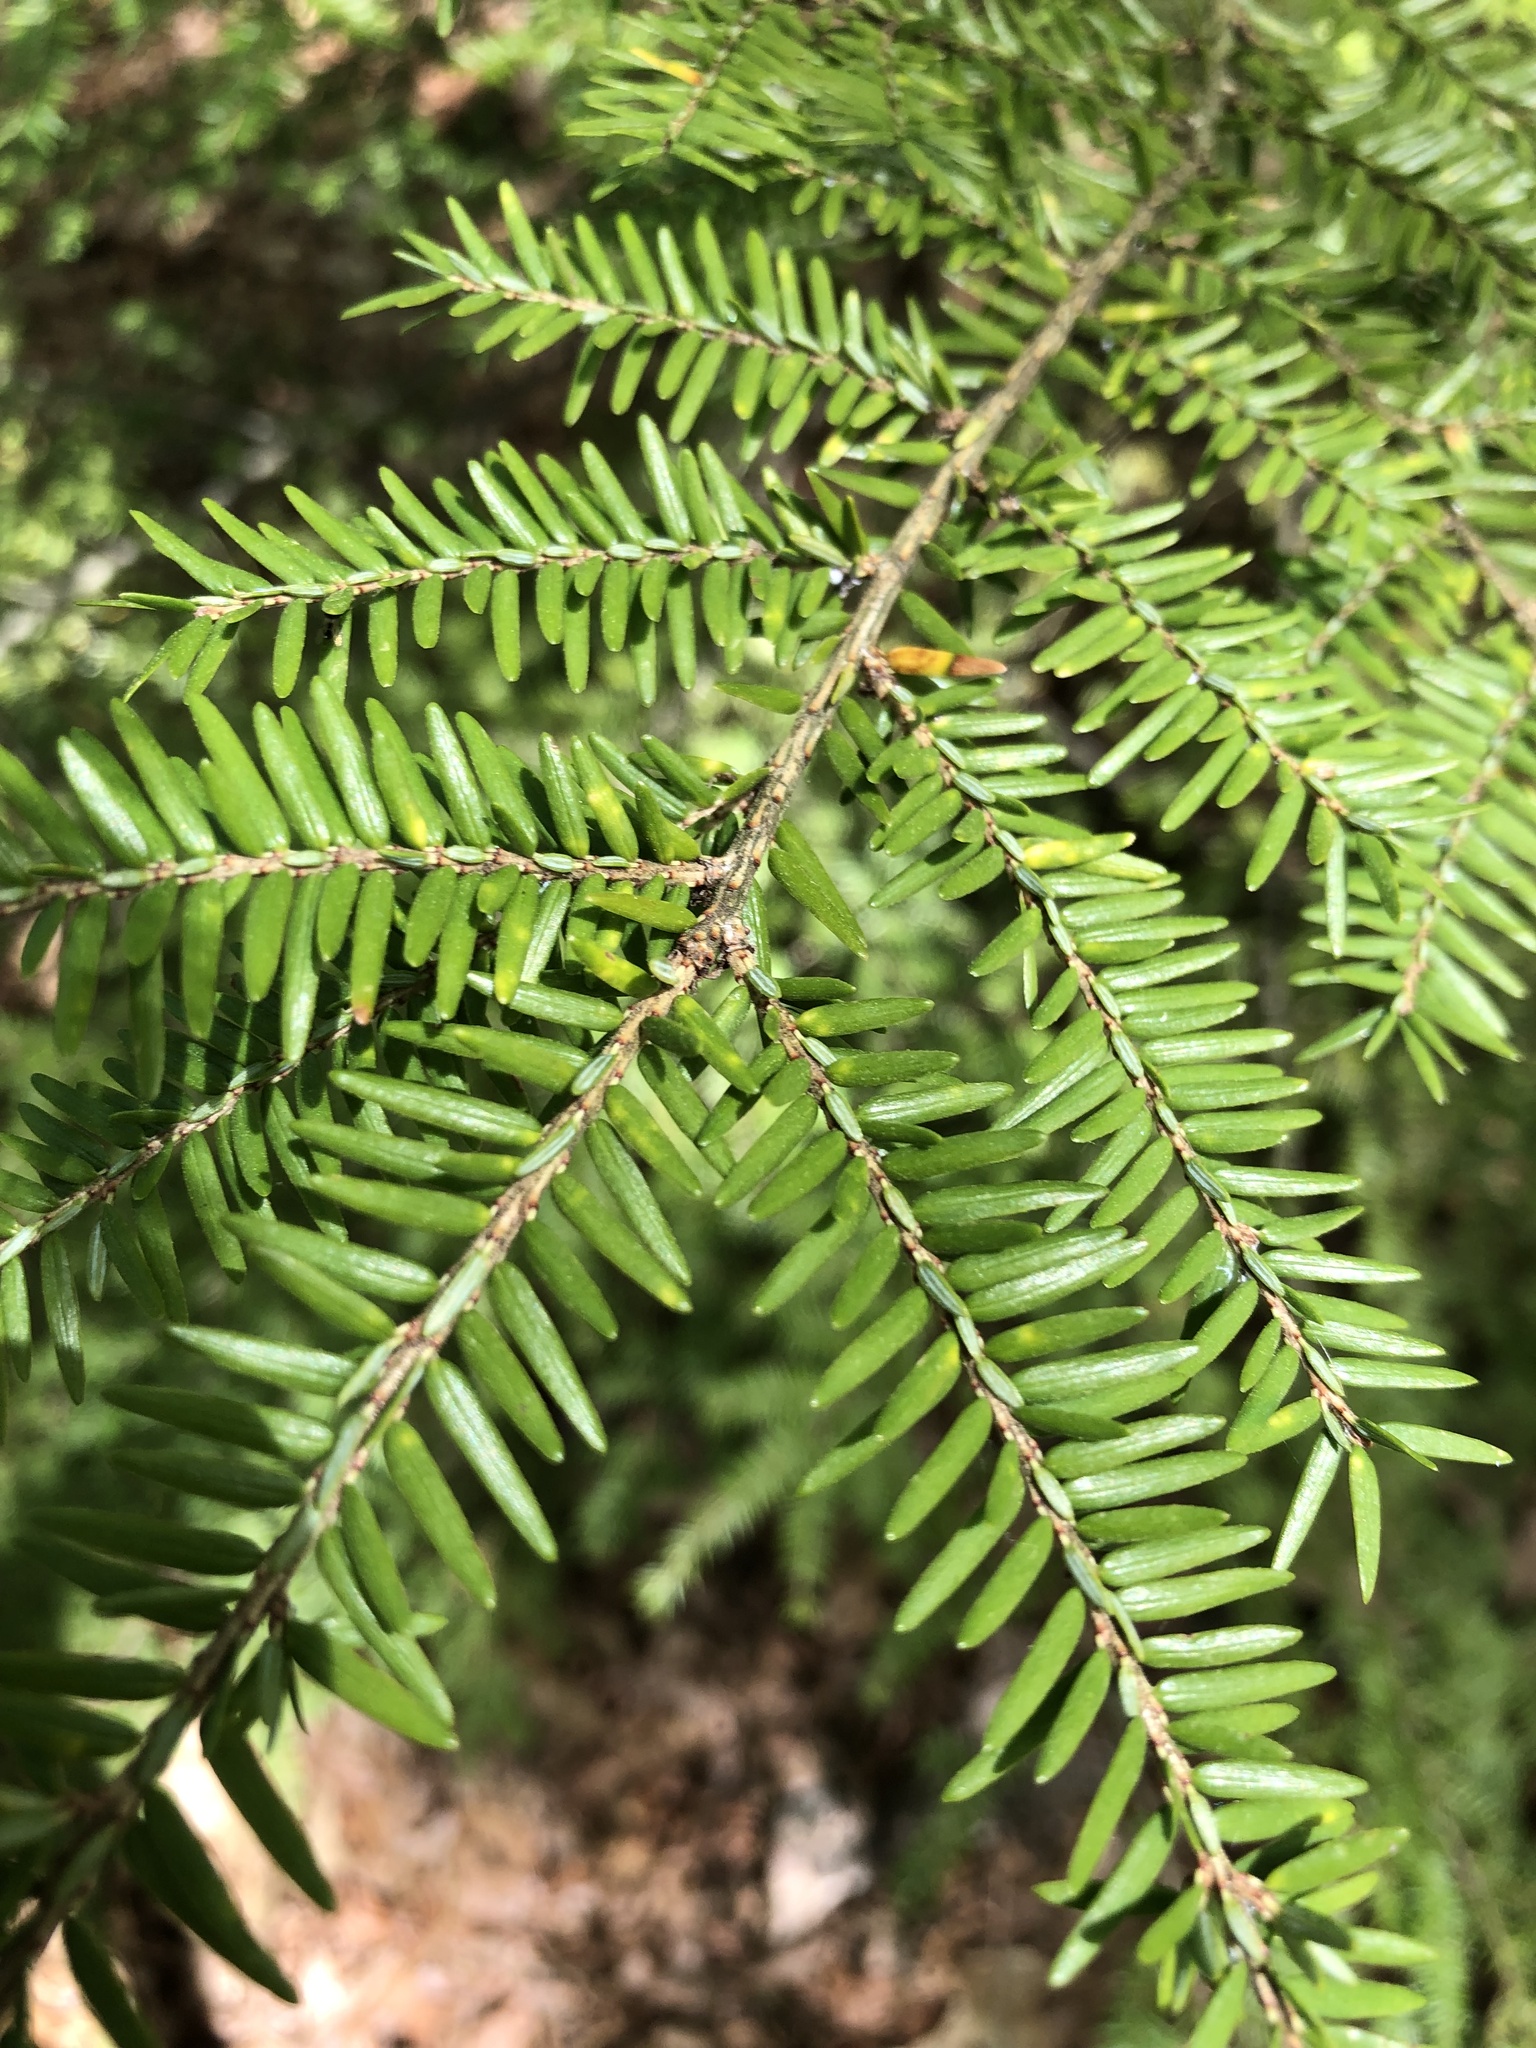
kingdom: Plantae
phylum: Tracheophyta
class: Pinopsida
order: Pinales
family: Pinaceae
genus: Tsuga
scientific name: Tsuga canadensis
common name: Eastern hemlock
